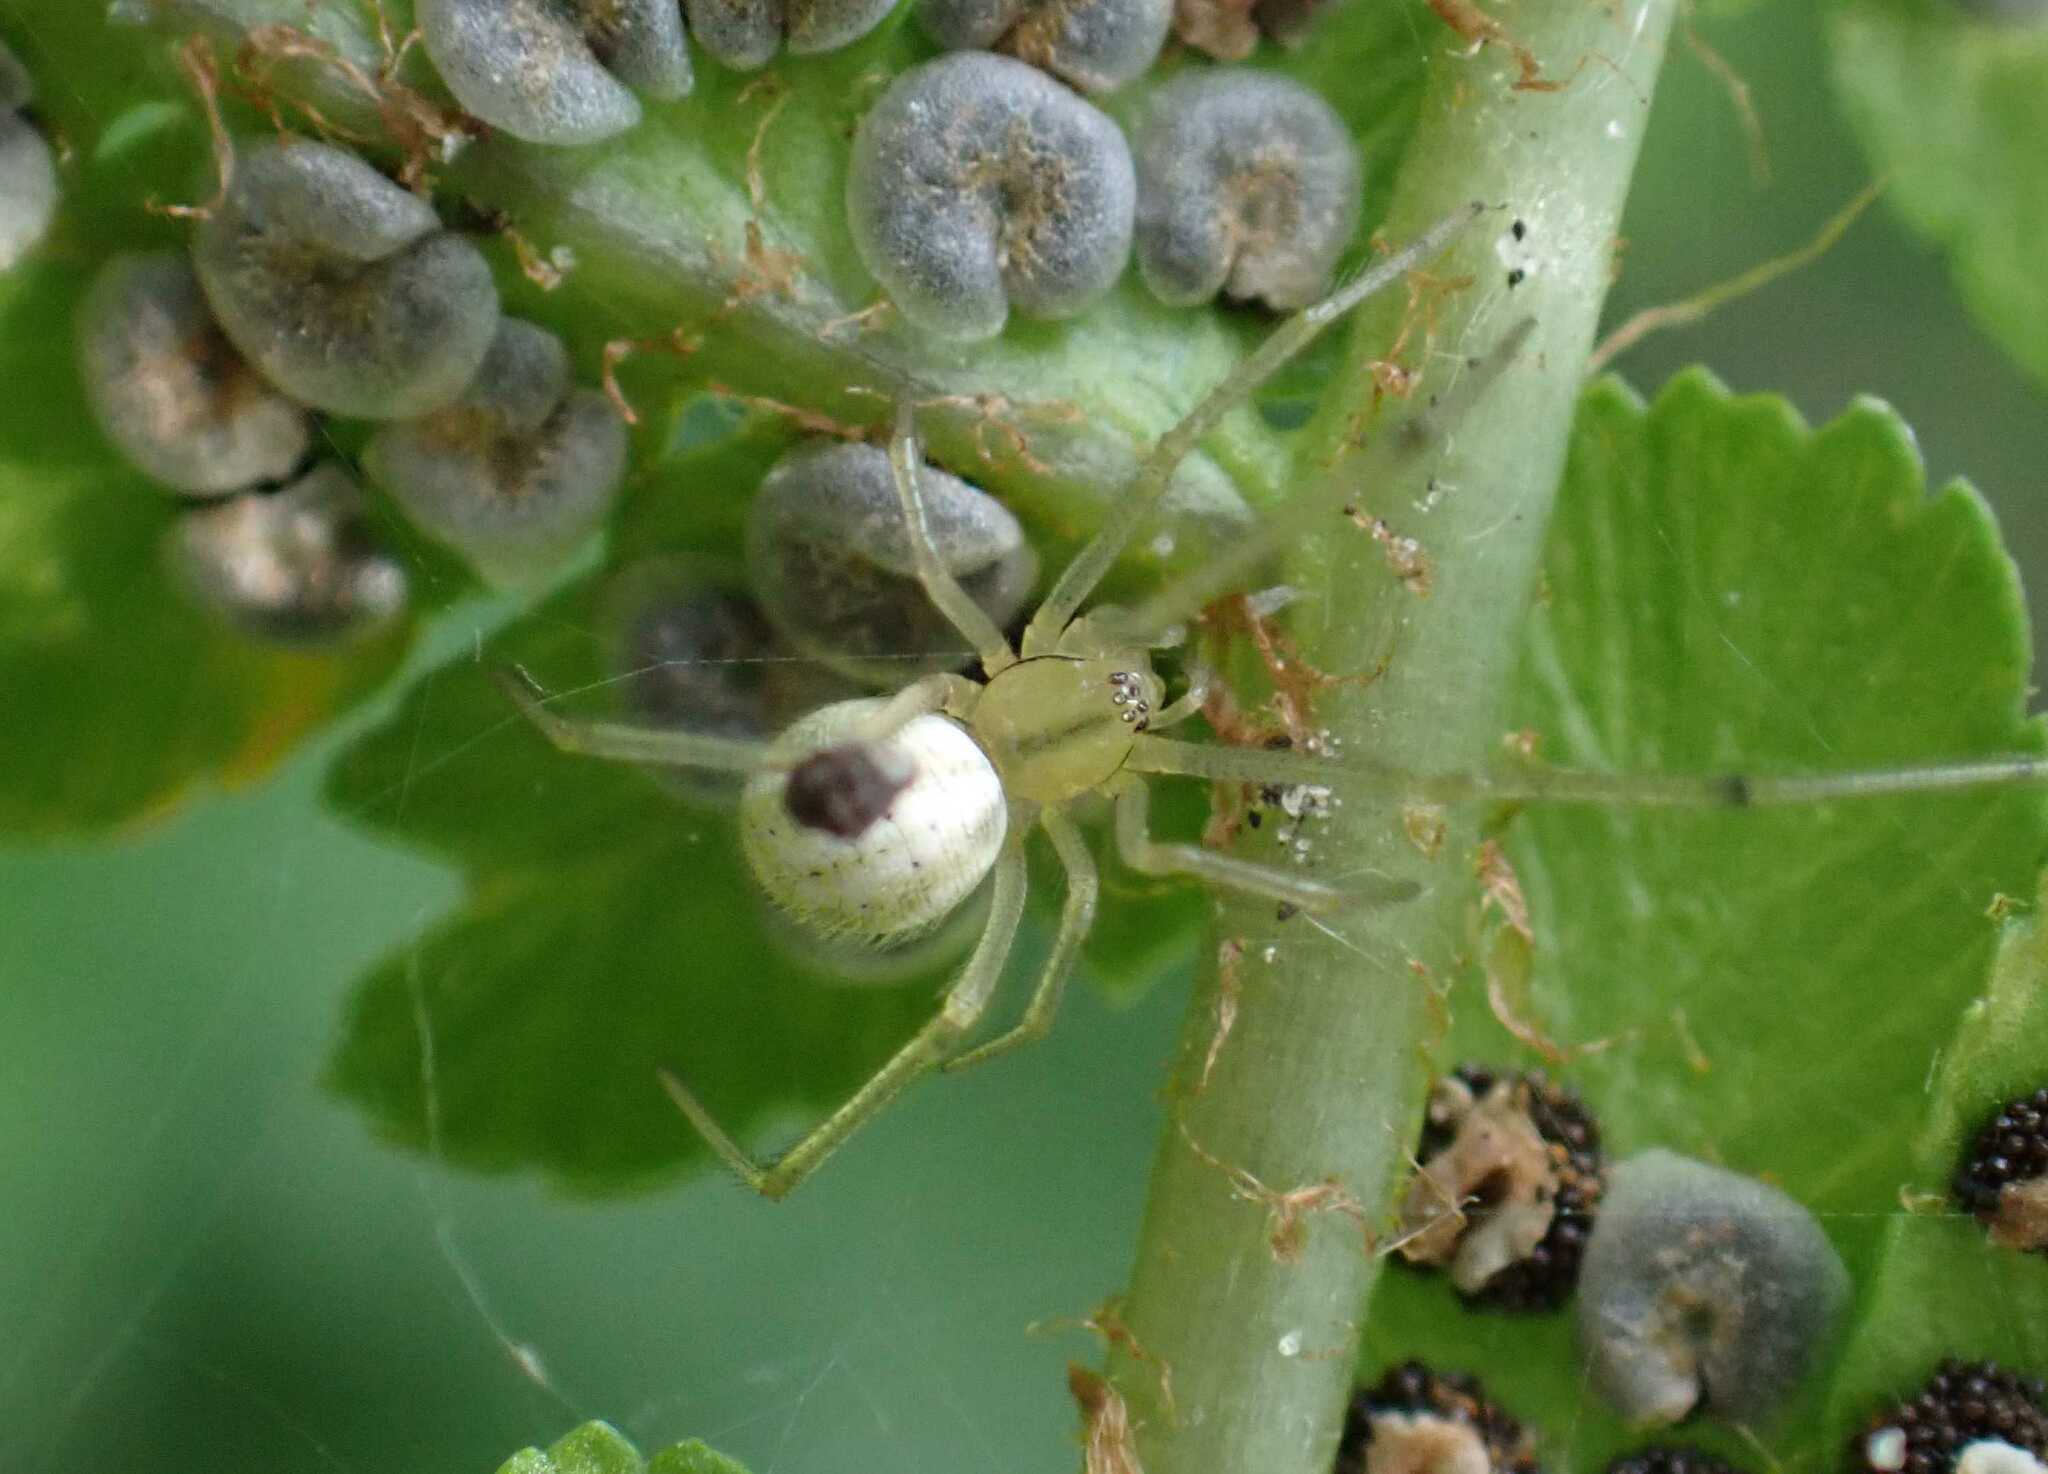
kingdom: Animalia
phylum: Arthropoda
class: Arachnida
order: Araneae
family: Theridiidae
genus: Enoplognatha
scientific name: Enoplognatha
